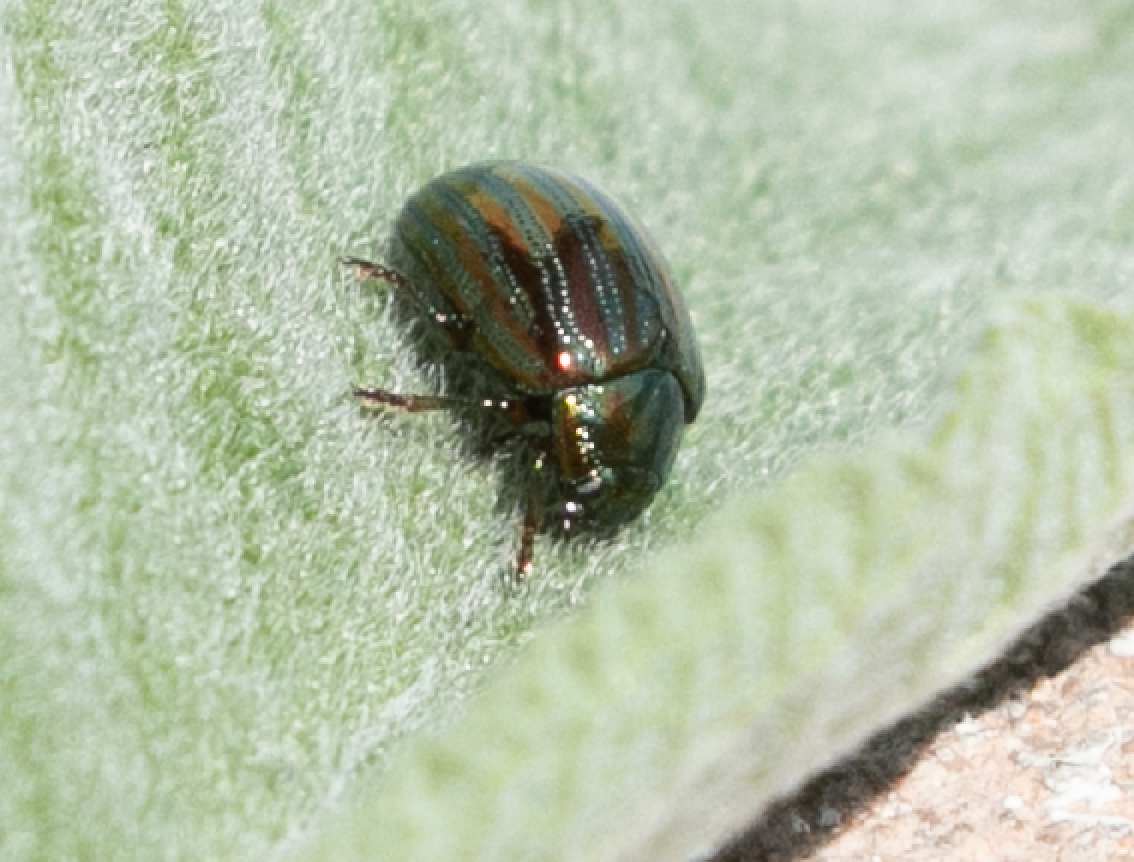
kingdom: Animalia
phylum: Arthropoda
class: Insecta
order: Coleoptera
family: Chrysomelidae
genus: Chrysolina
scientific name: Chrysolina americana
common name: Rosemary beetle
